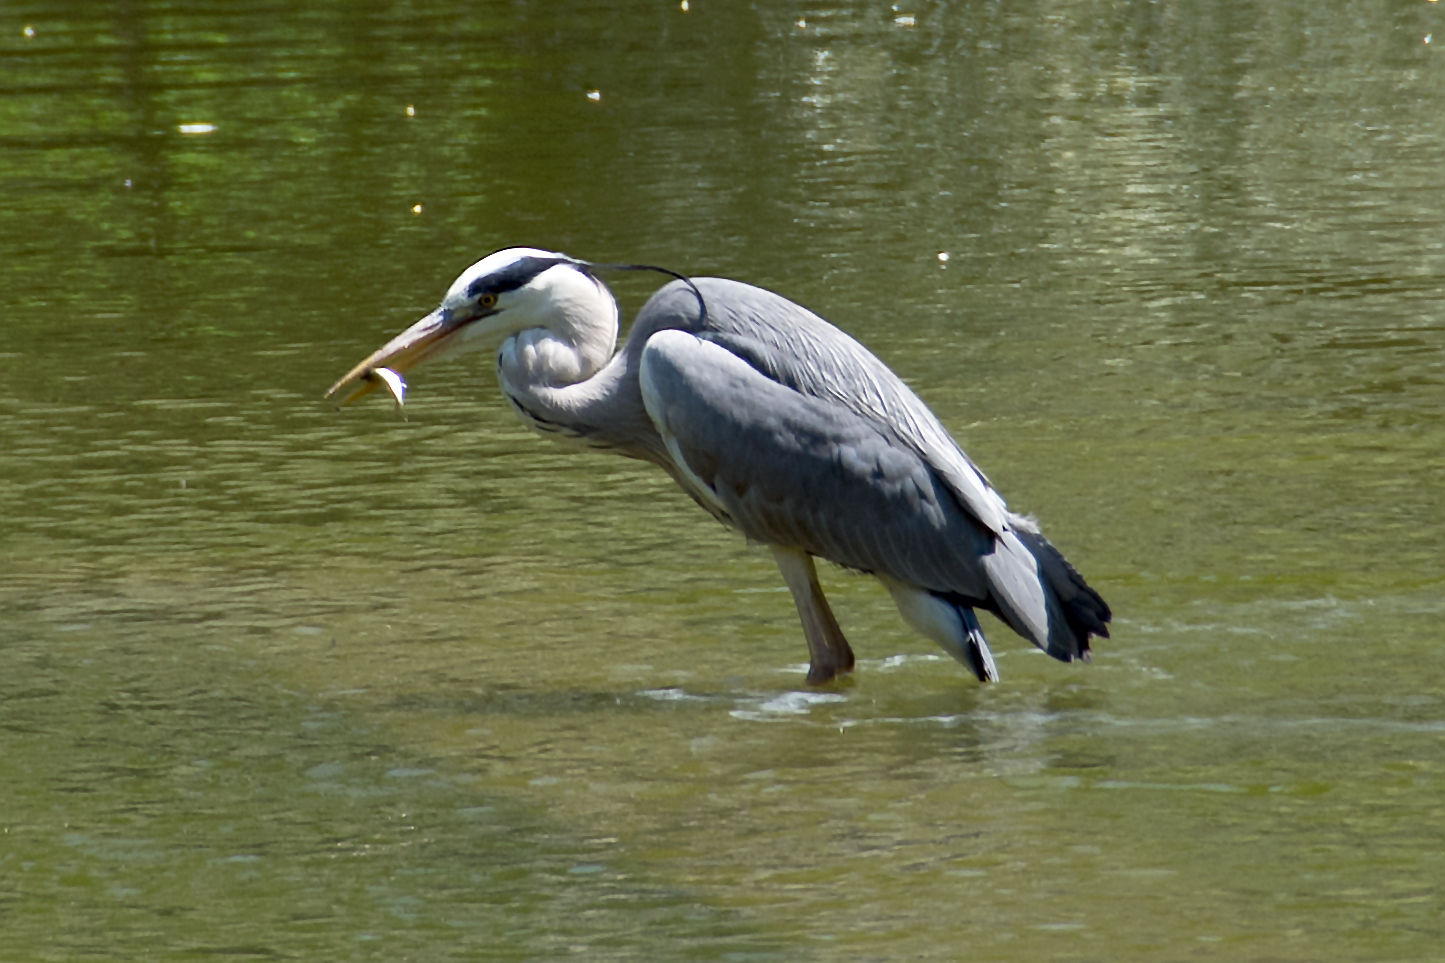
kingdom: Animalia
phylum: Chordata
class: Aves
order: Pelecaniformes
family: Ardeidae
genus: Ardea
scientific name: Ardea cinerea
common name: Grey heron
